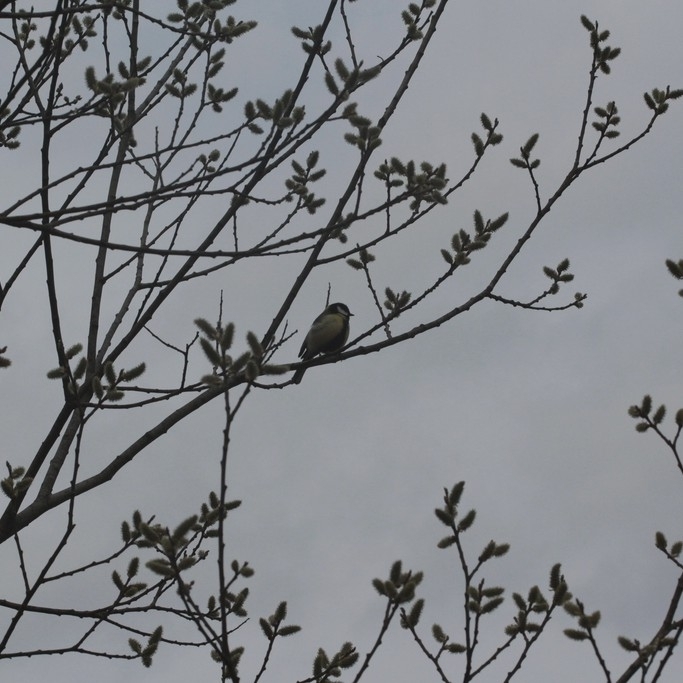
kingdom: Animalia
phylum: Chordata
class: Aves
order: Passeriformes
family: Paridae
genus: Parus
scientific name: Parus major
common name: Great tit
